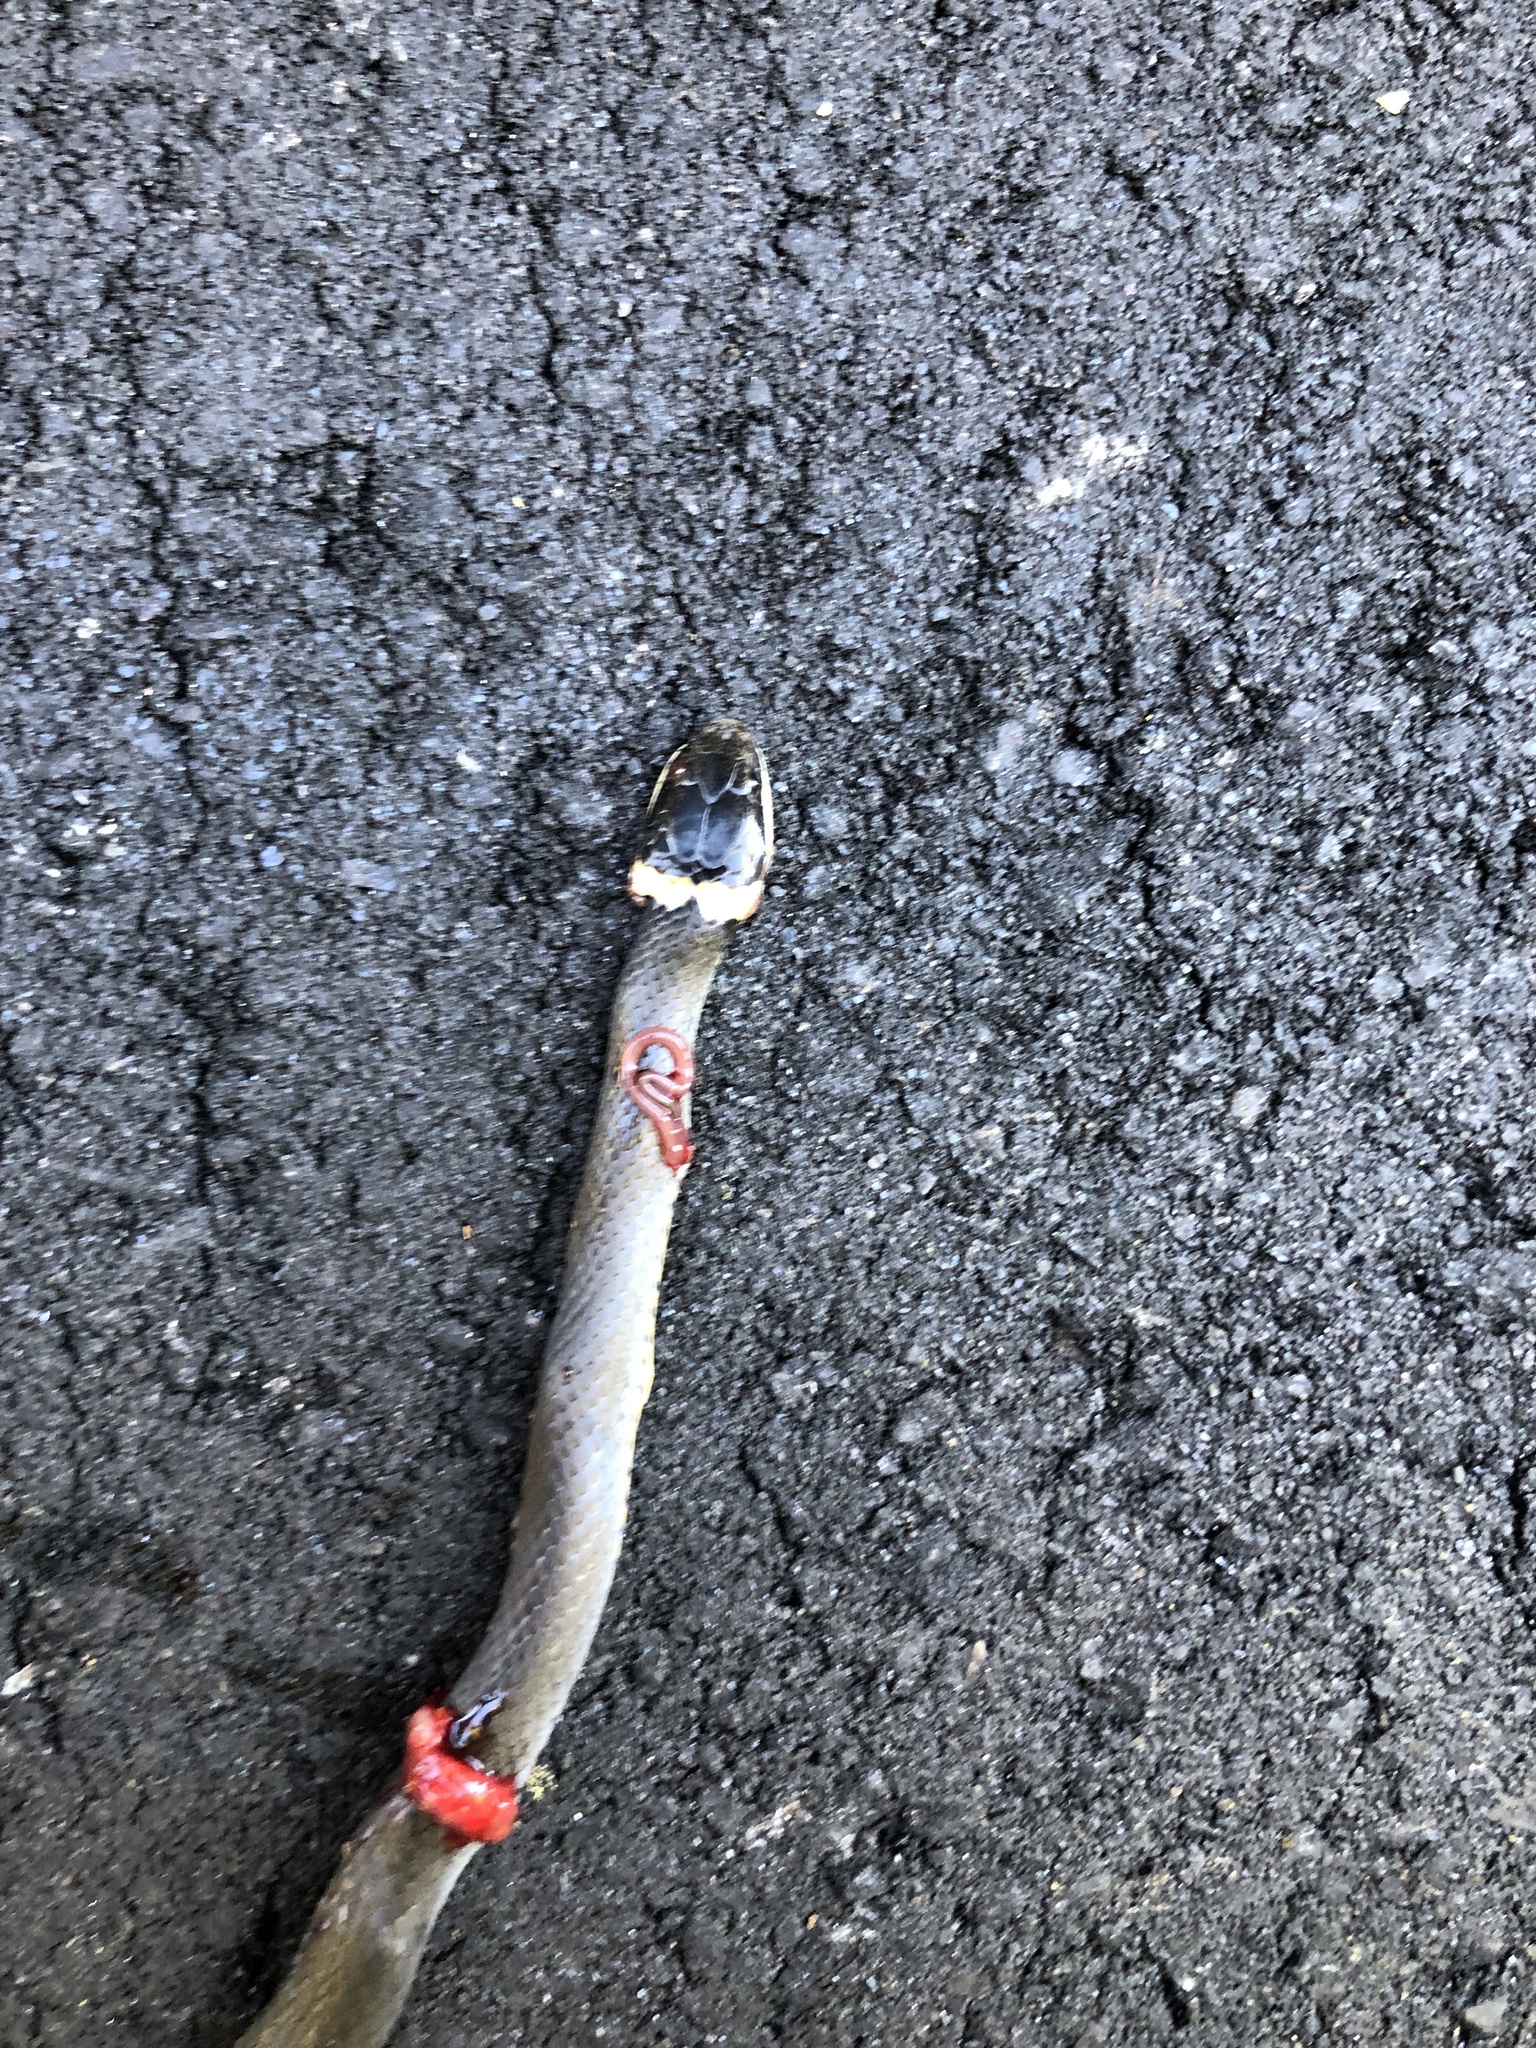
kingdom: Animalia
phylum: Chordata
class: Squamata
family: Colubridae
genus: Diadophis
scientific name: Diadophis punctatus
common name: Ringneck snake
